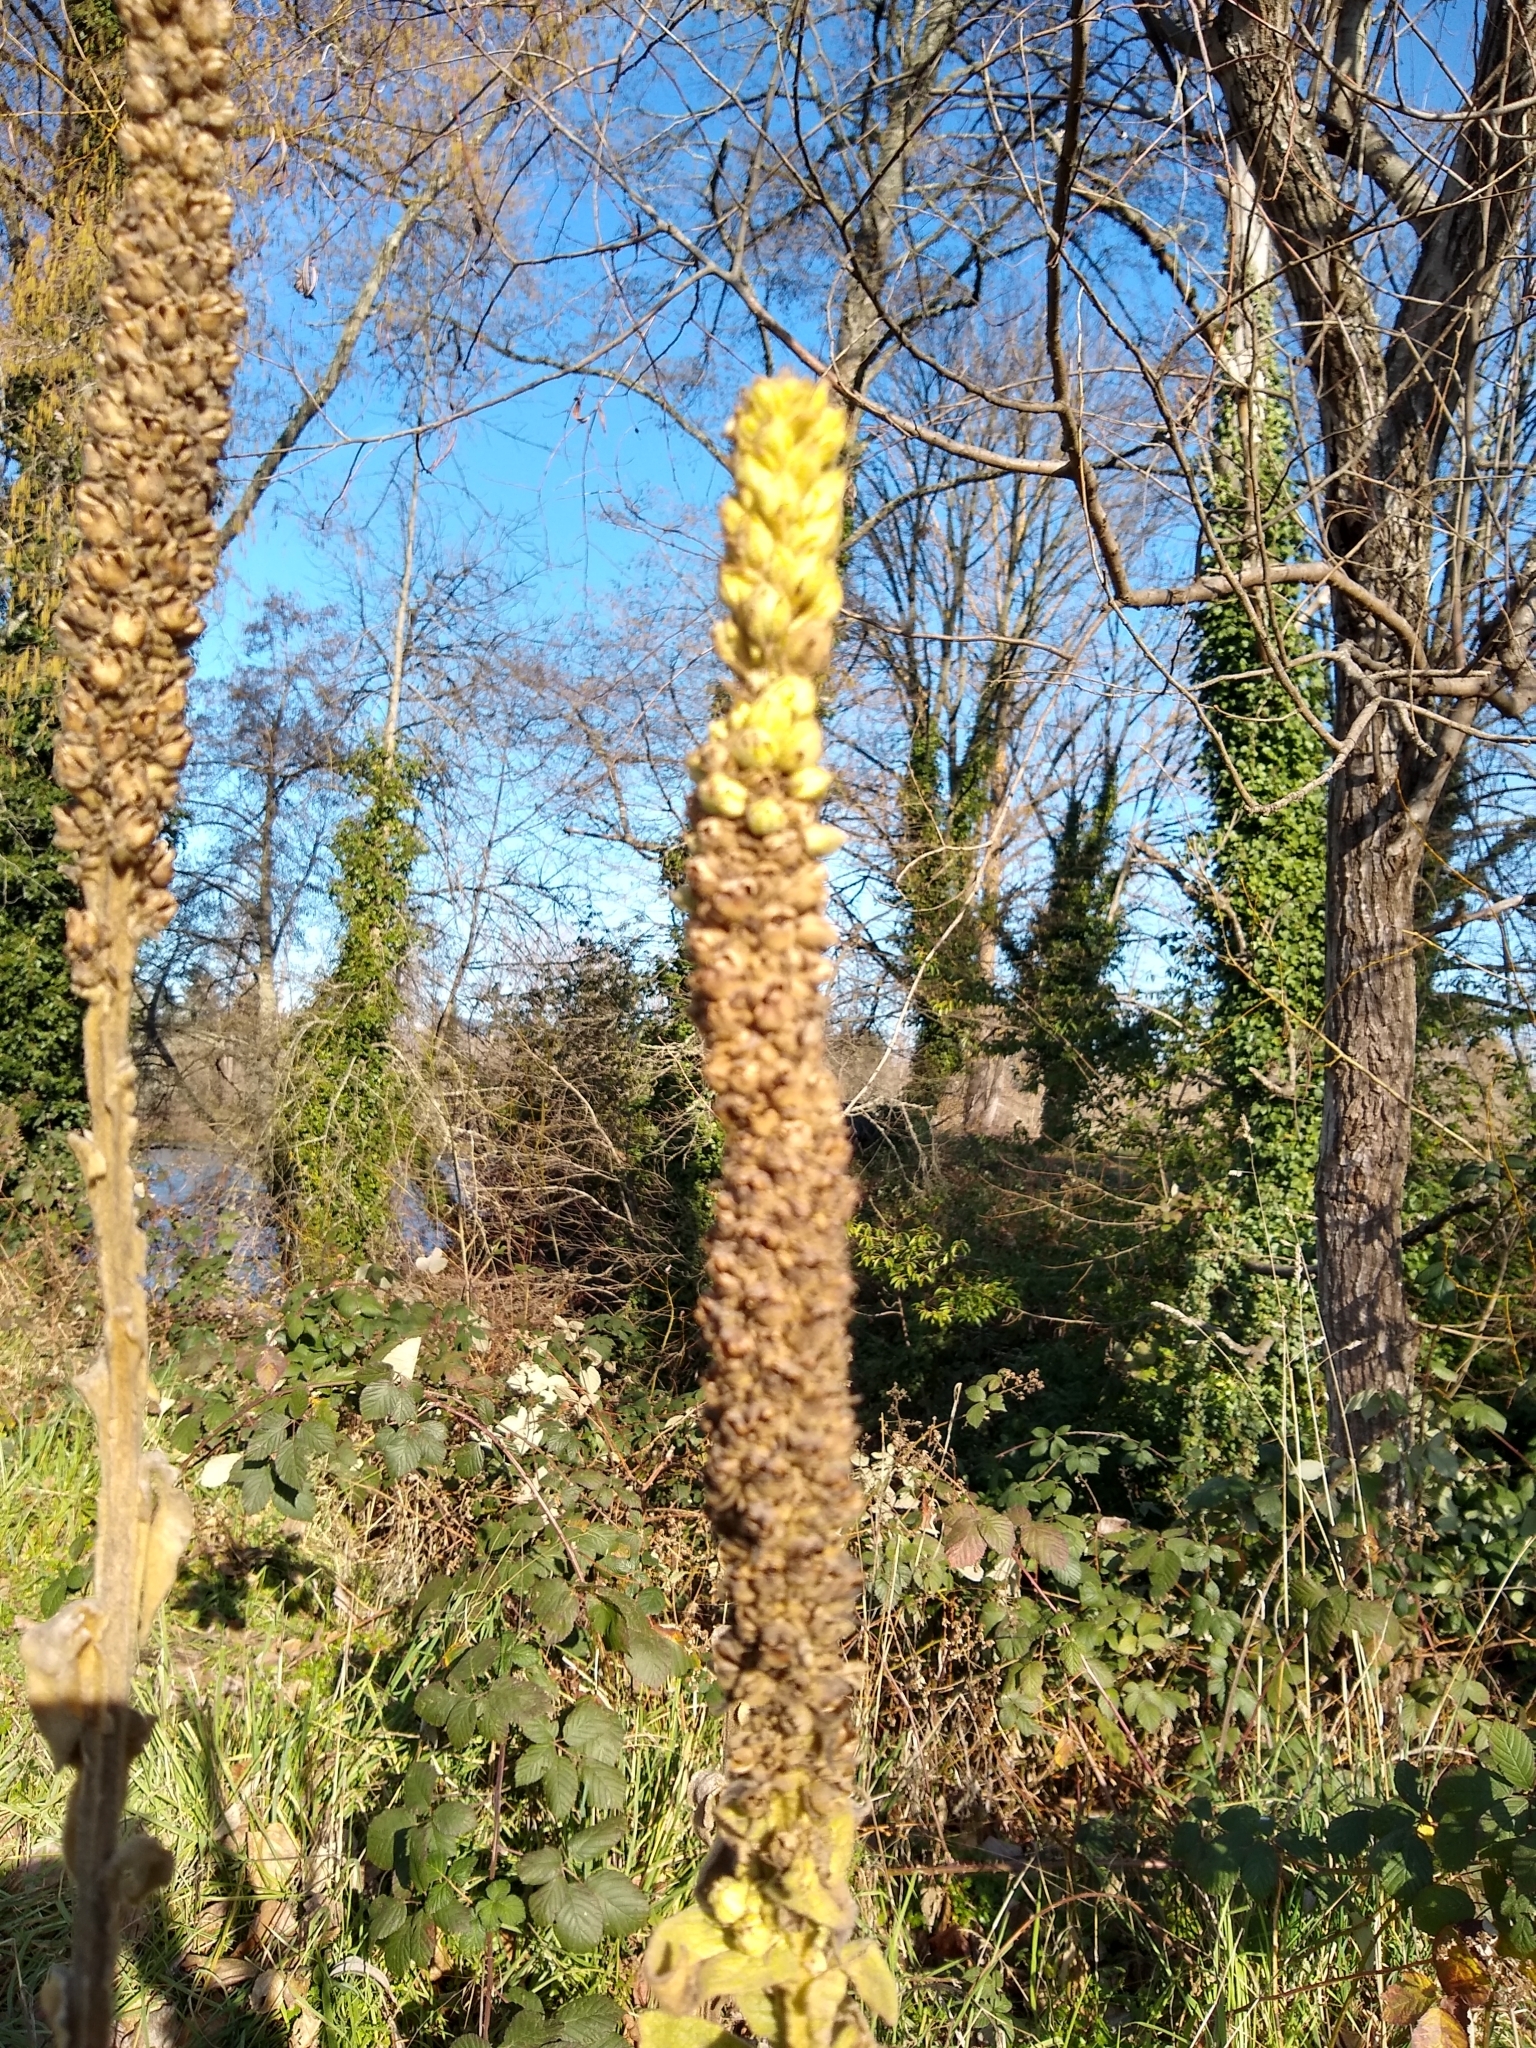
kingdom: Plantae
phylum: Tracheophyta
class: Magnoliopsida
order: Lamiales
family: Scrophulariaceae
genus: Verbascum
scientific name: Verbascum thapsus
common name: Common mullein
